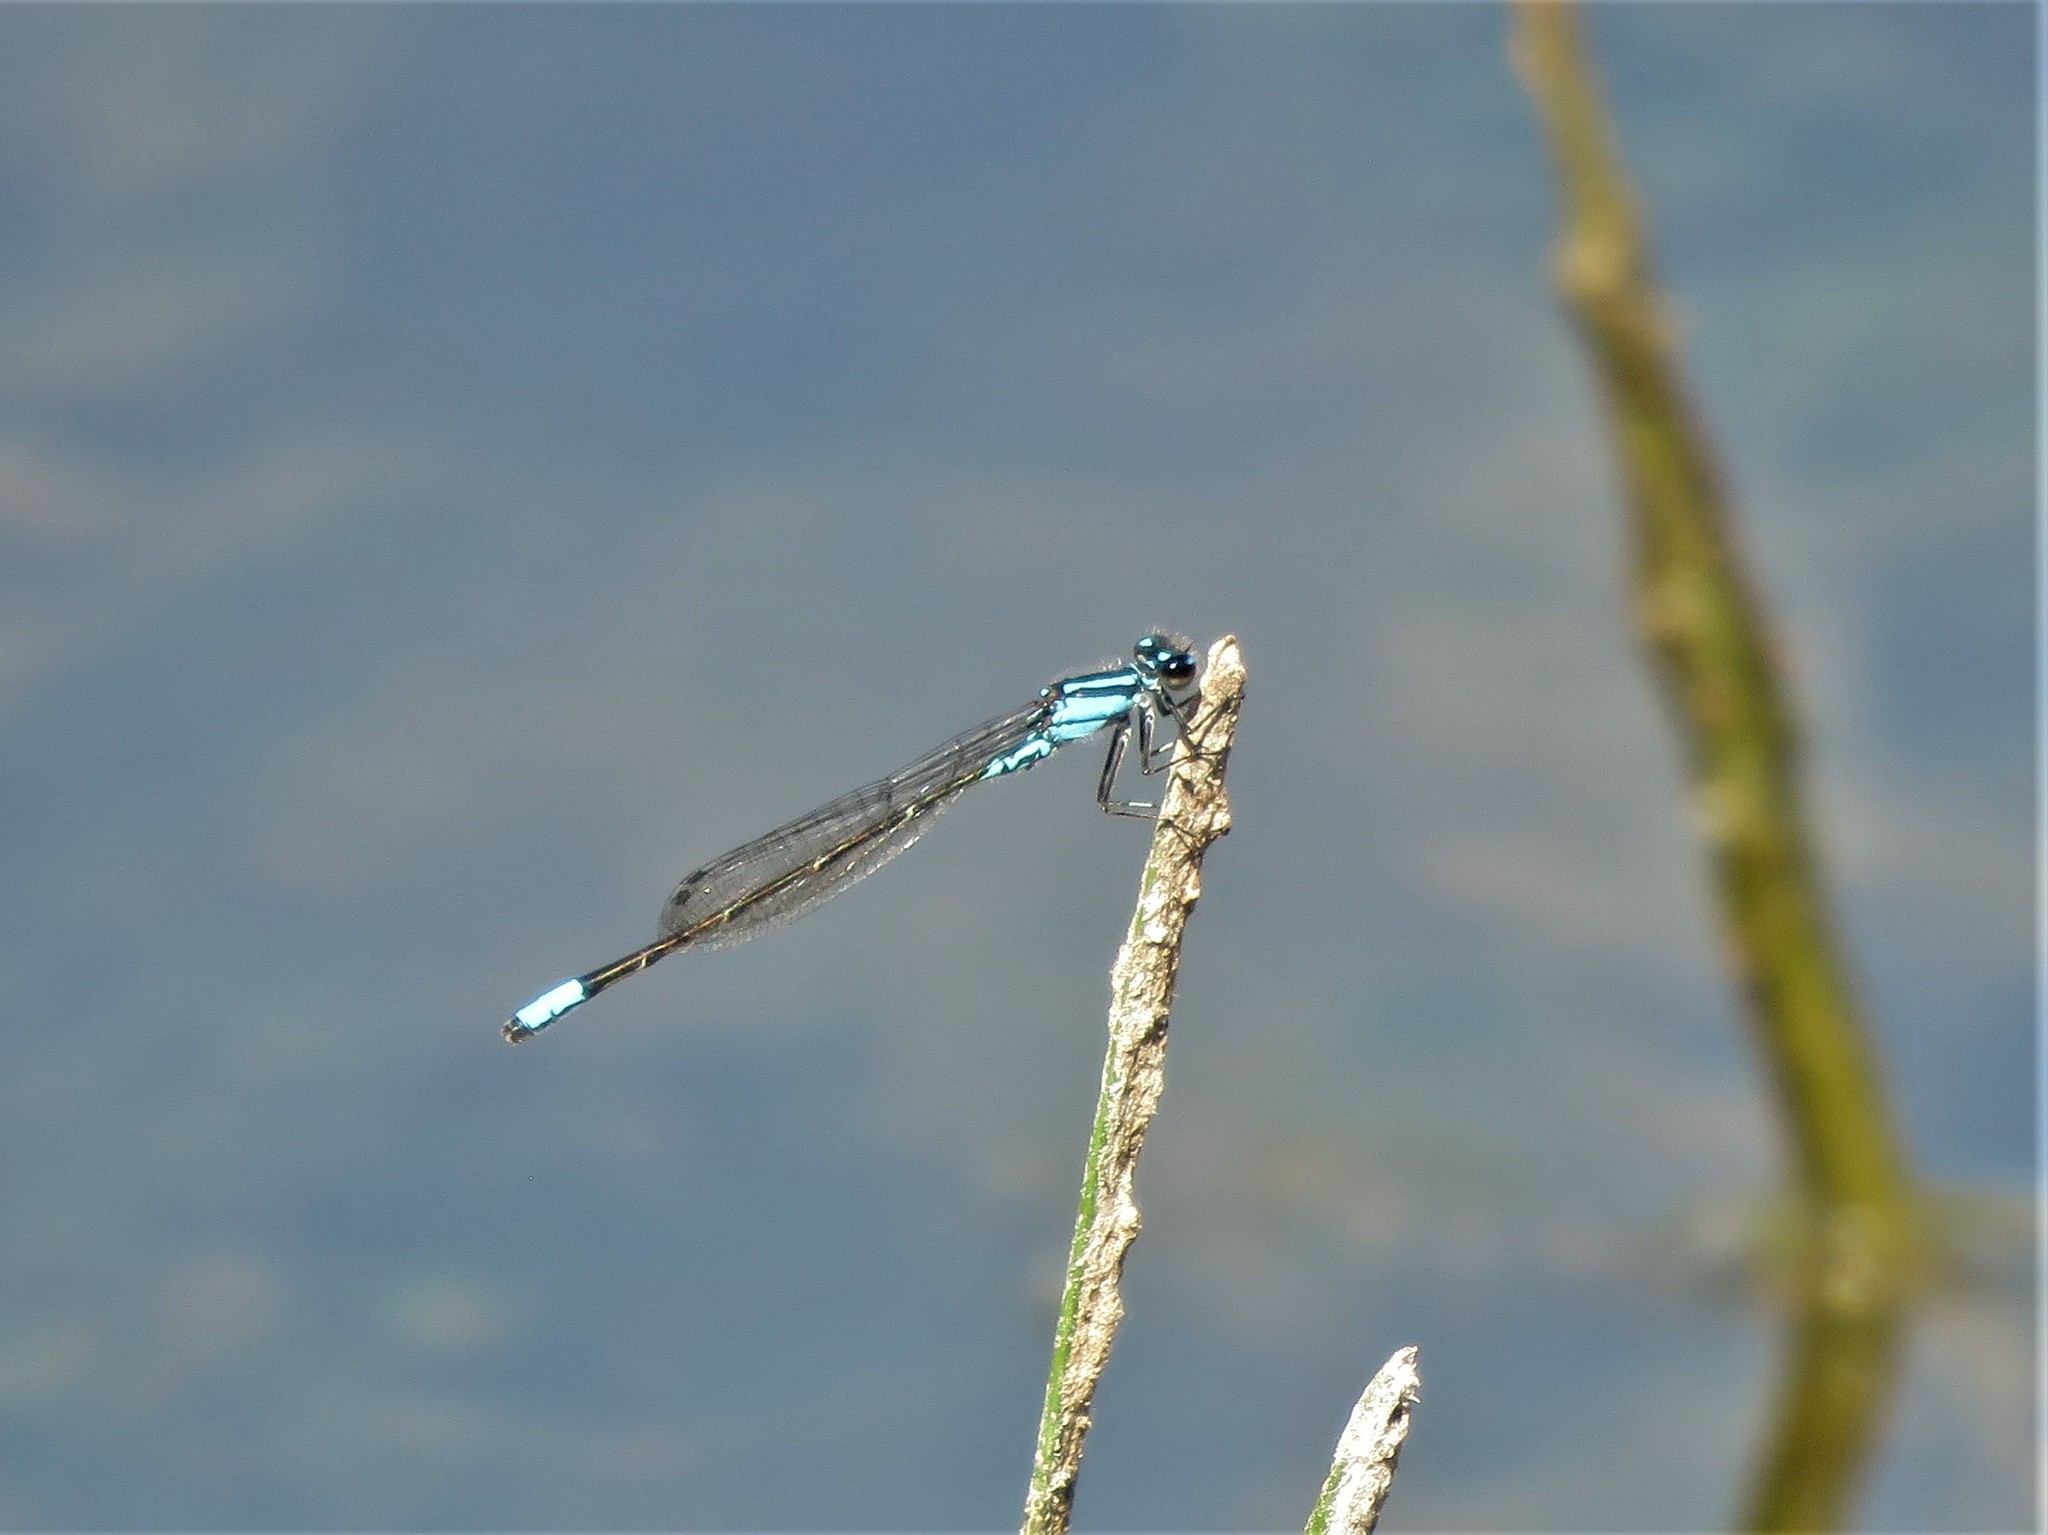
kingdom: Animalia
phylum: Arthropoda
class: Insecta
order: Odonata
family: Coenagrionidae
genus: Enallagma
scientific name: Enallagma geminatum
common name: Skimming bluet
